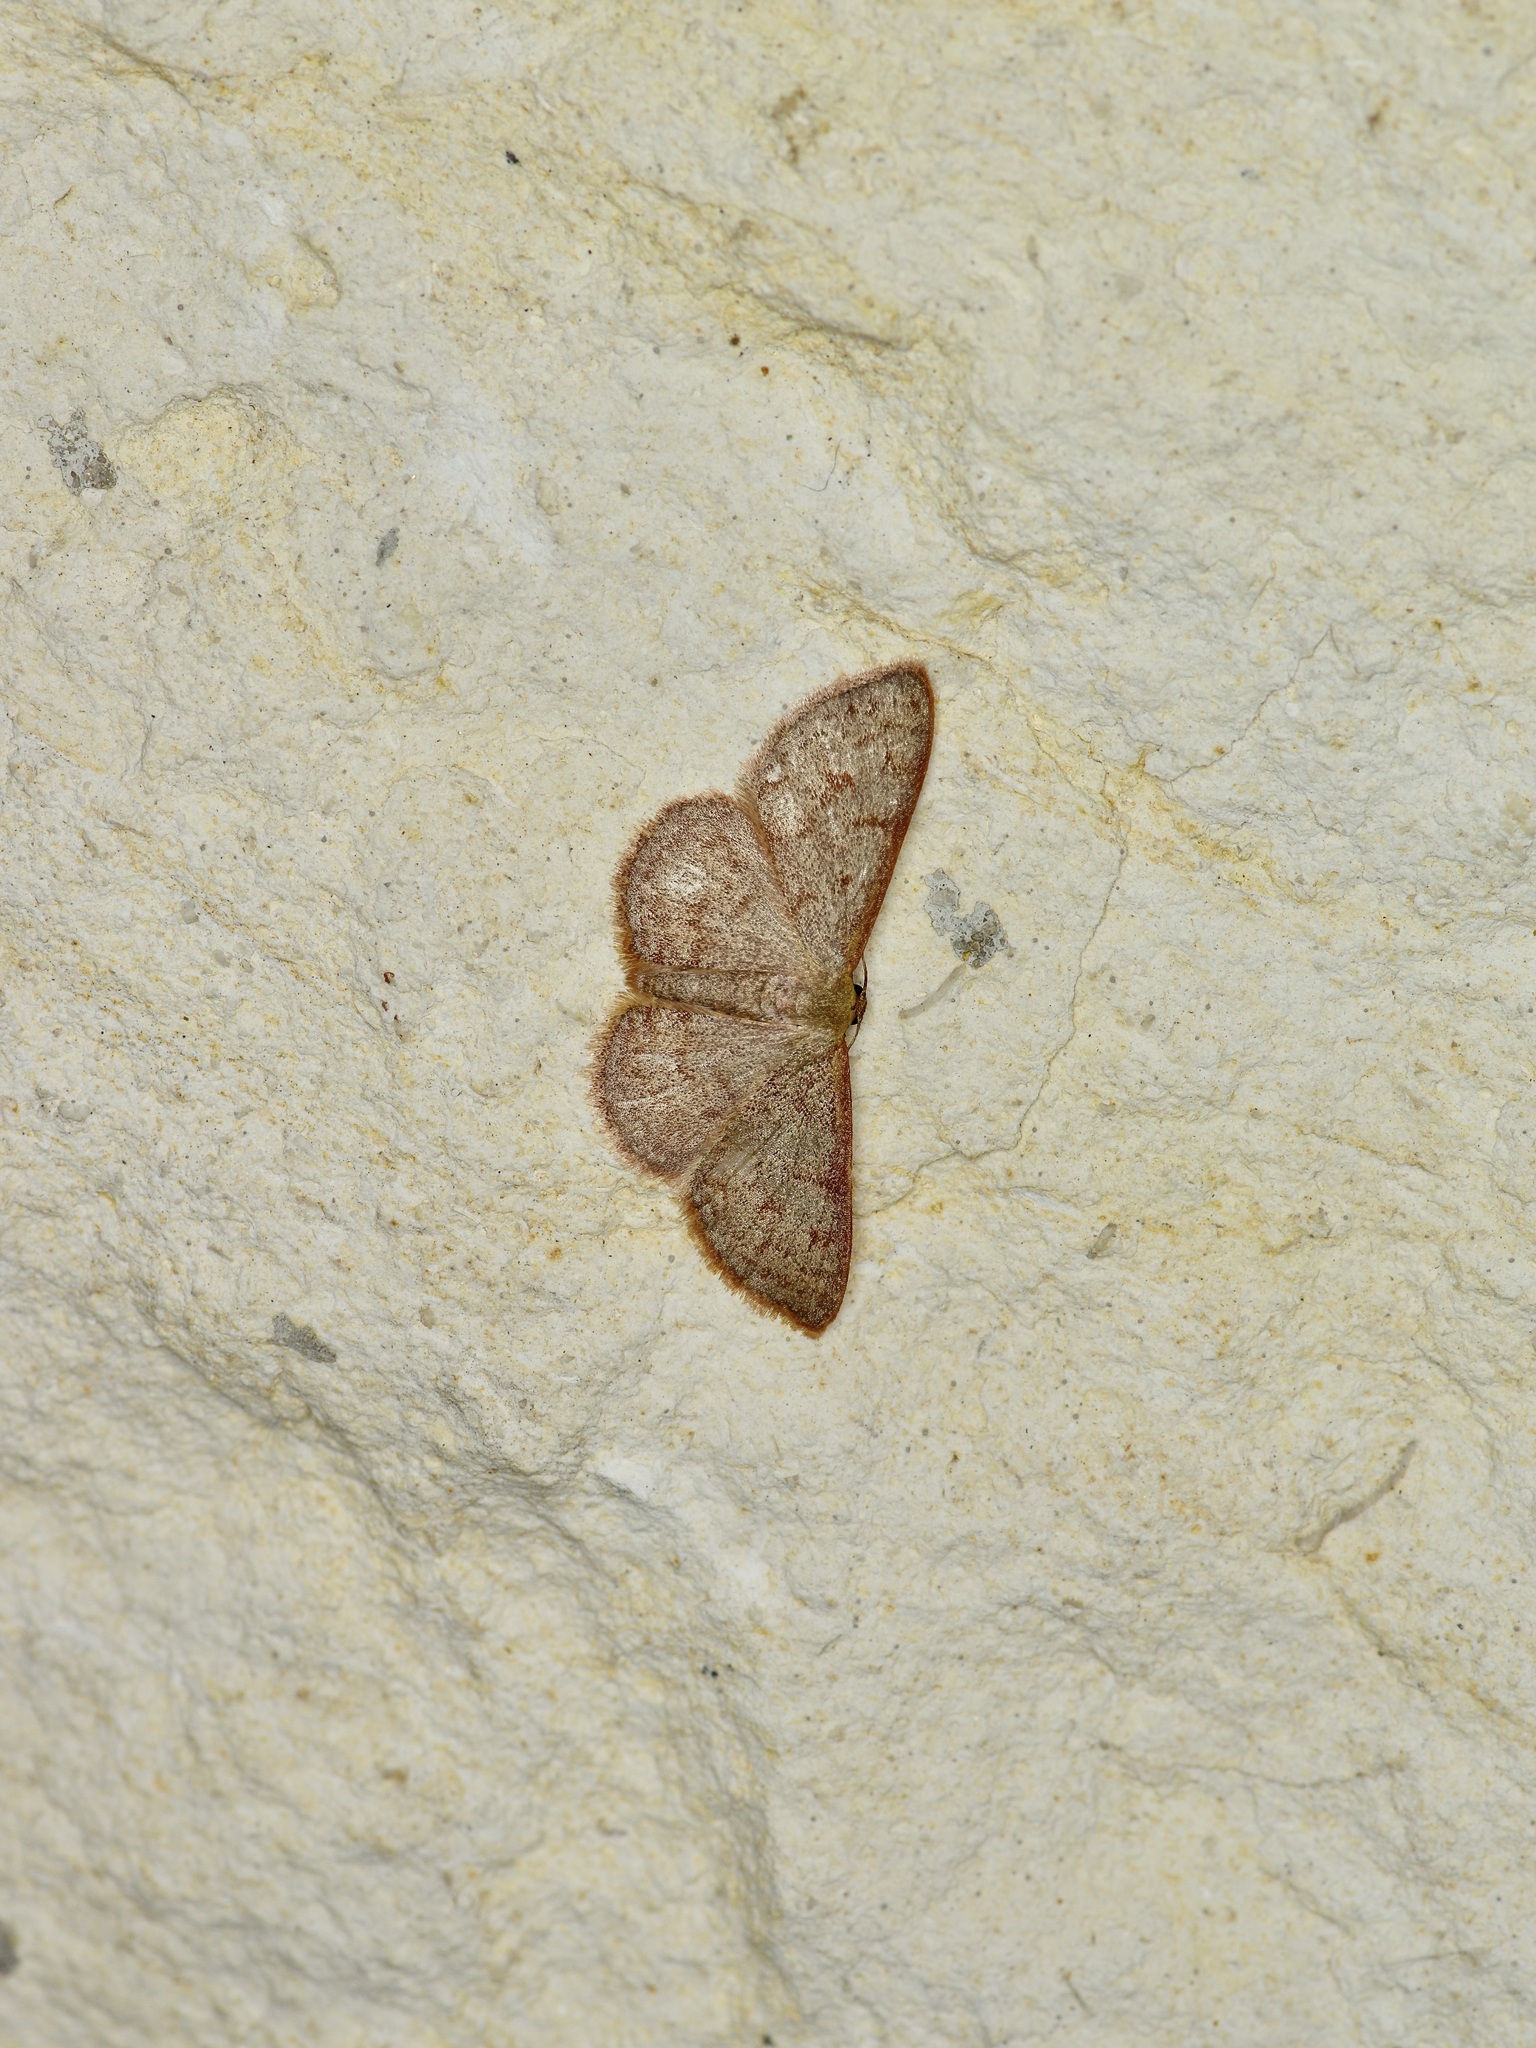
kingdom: Animalia
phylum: Arthropoda
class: Insecta
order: Lepidoptera
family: Geometridae
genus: Leptostales
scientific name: Leptostales pannaria
